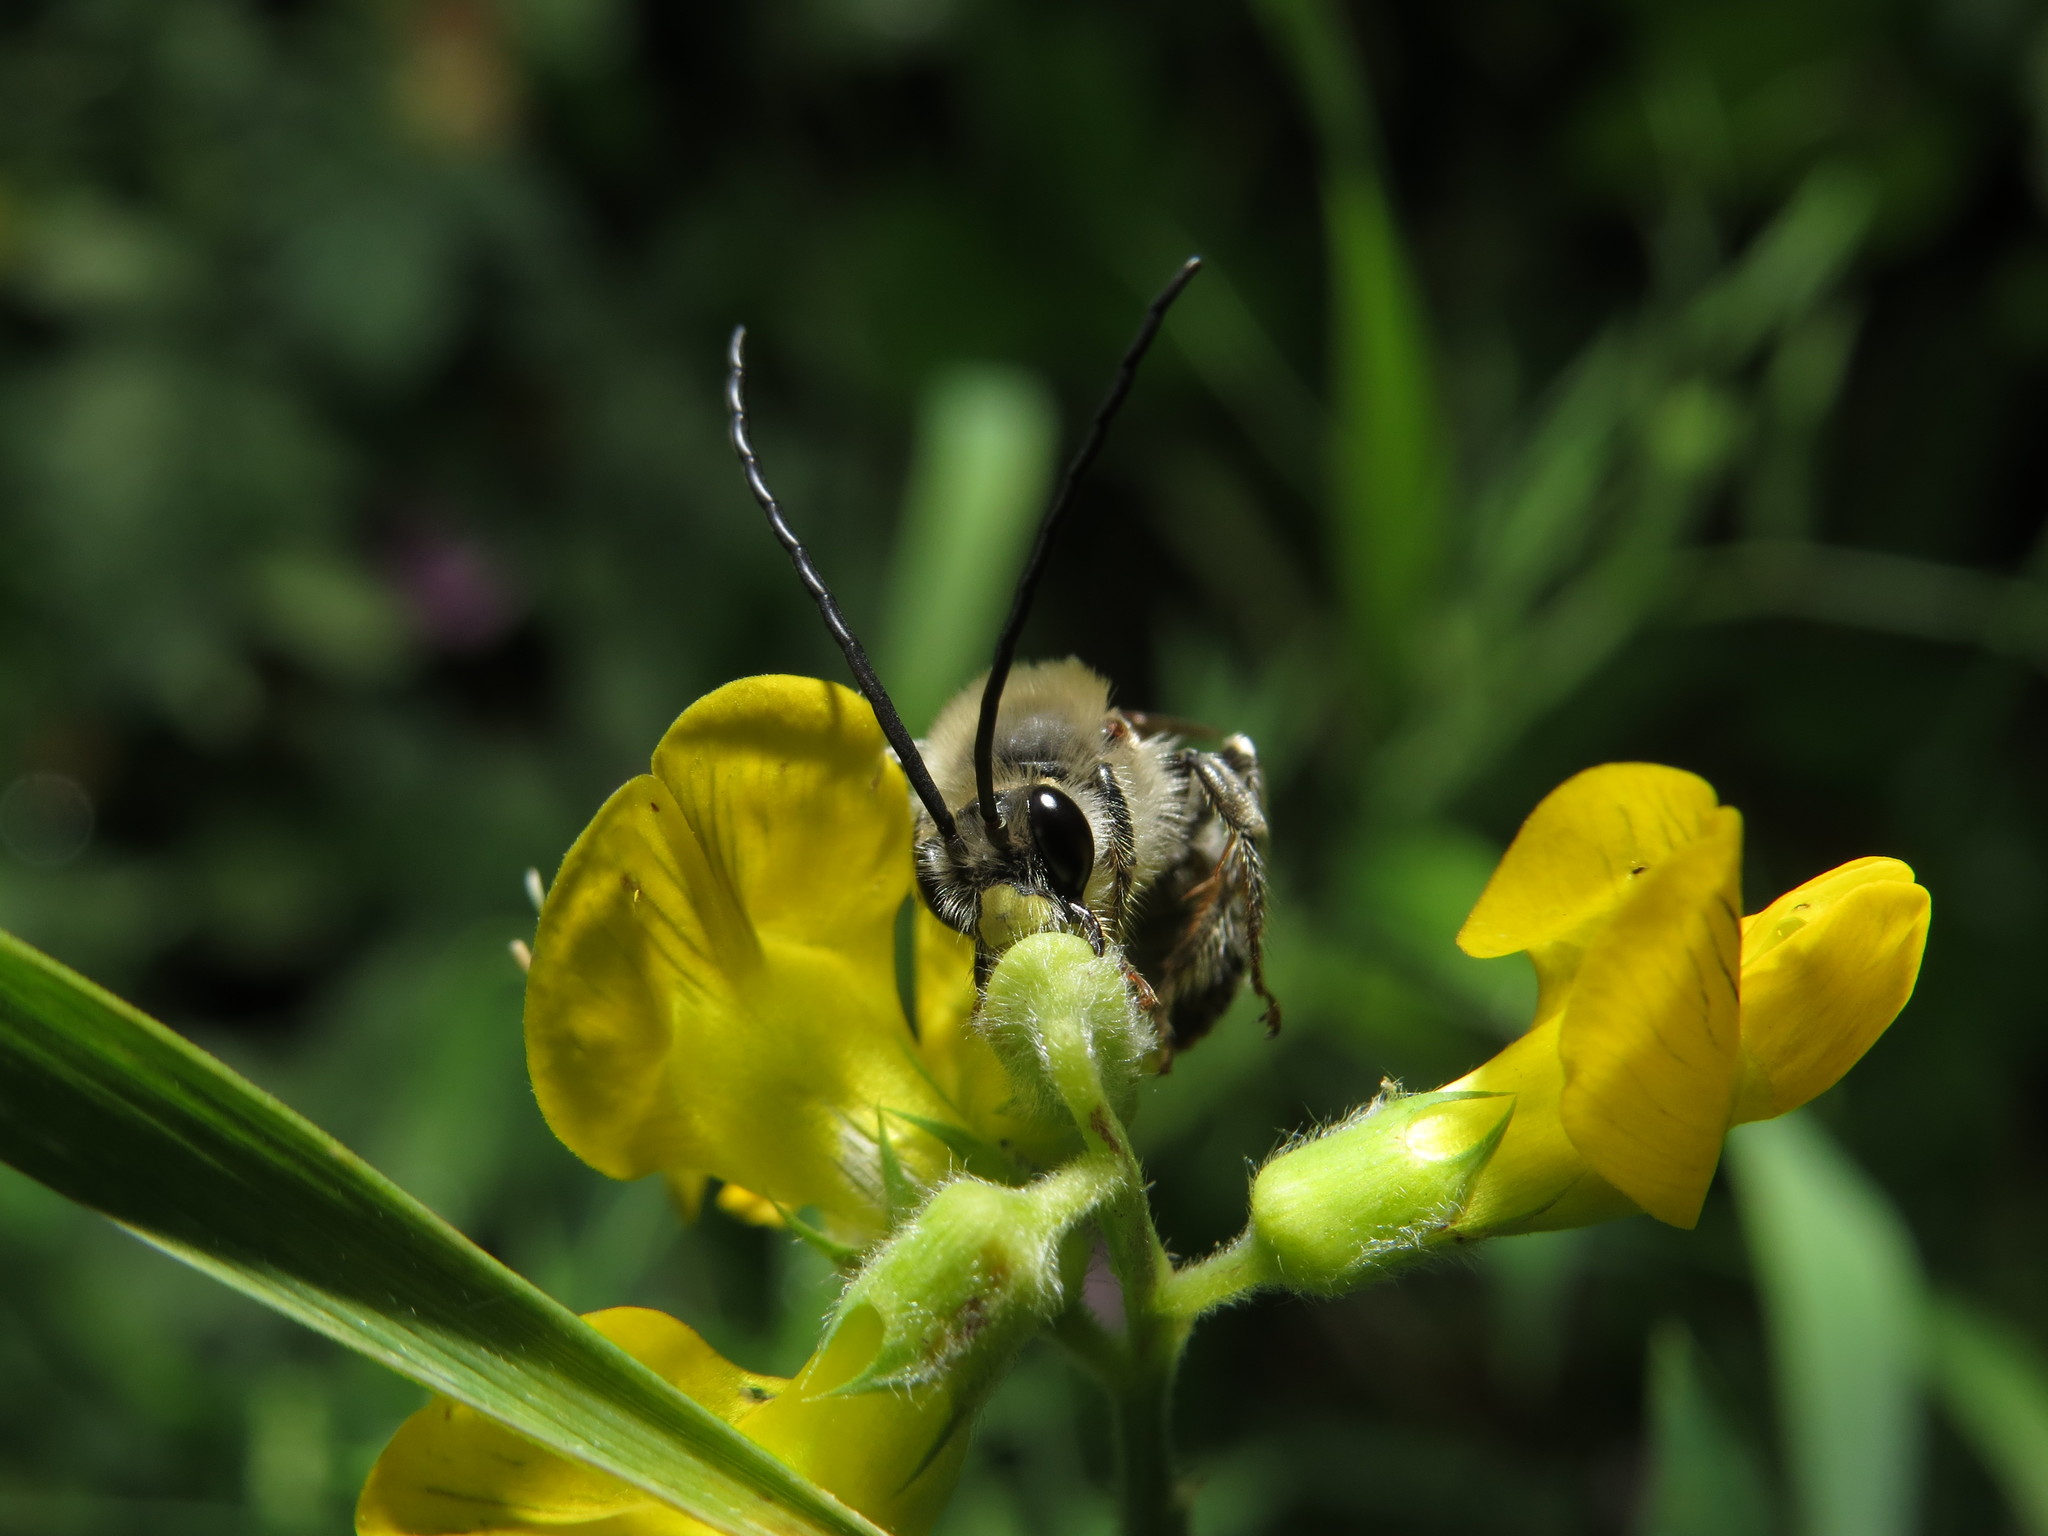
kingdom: Animalia
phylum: Arthropoda
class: Insecta
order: Hymenoptera
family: Apidae
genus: Eucera
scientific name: Eucera longicornis
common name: Long-horned bee
